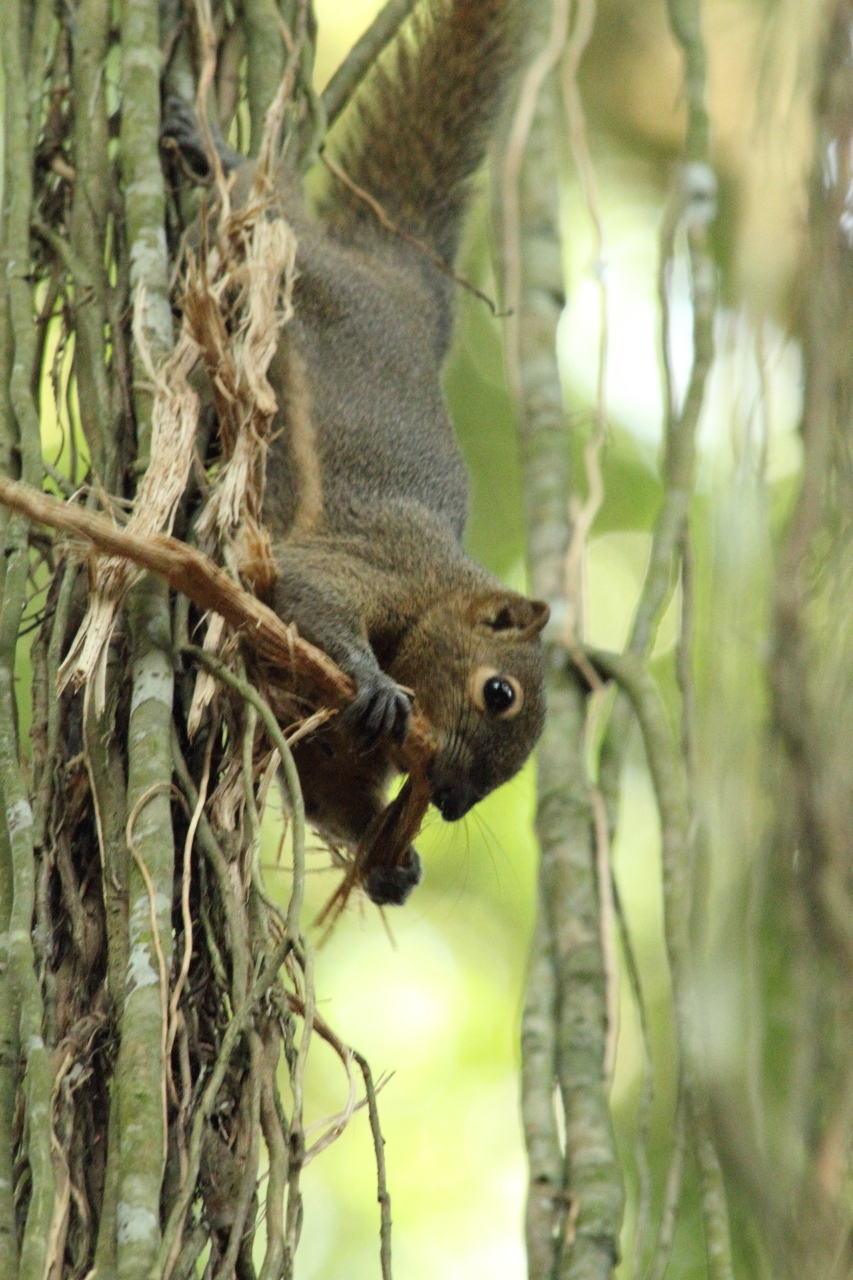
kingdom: Animalia
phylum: Chordata
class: Mammalia
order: Rodentia
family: Sciuridae
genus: Callosciurus
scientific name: Callosciurus notatus
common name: Plantain squirrel
